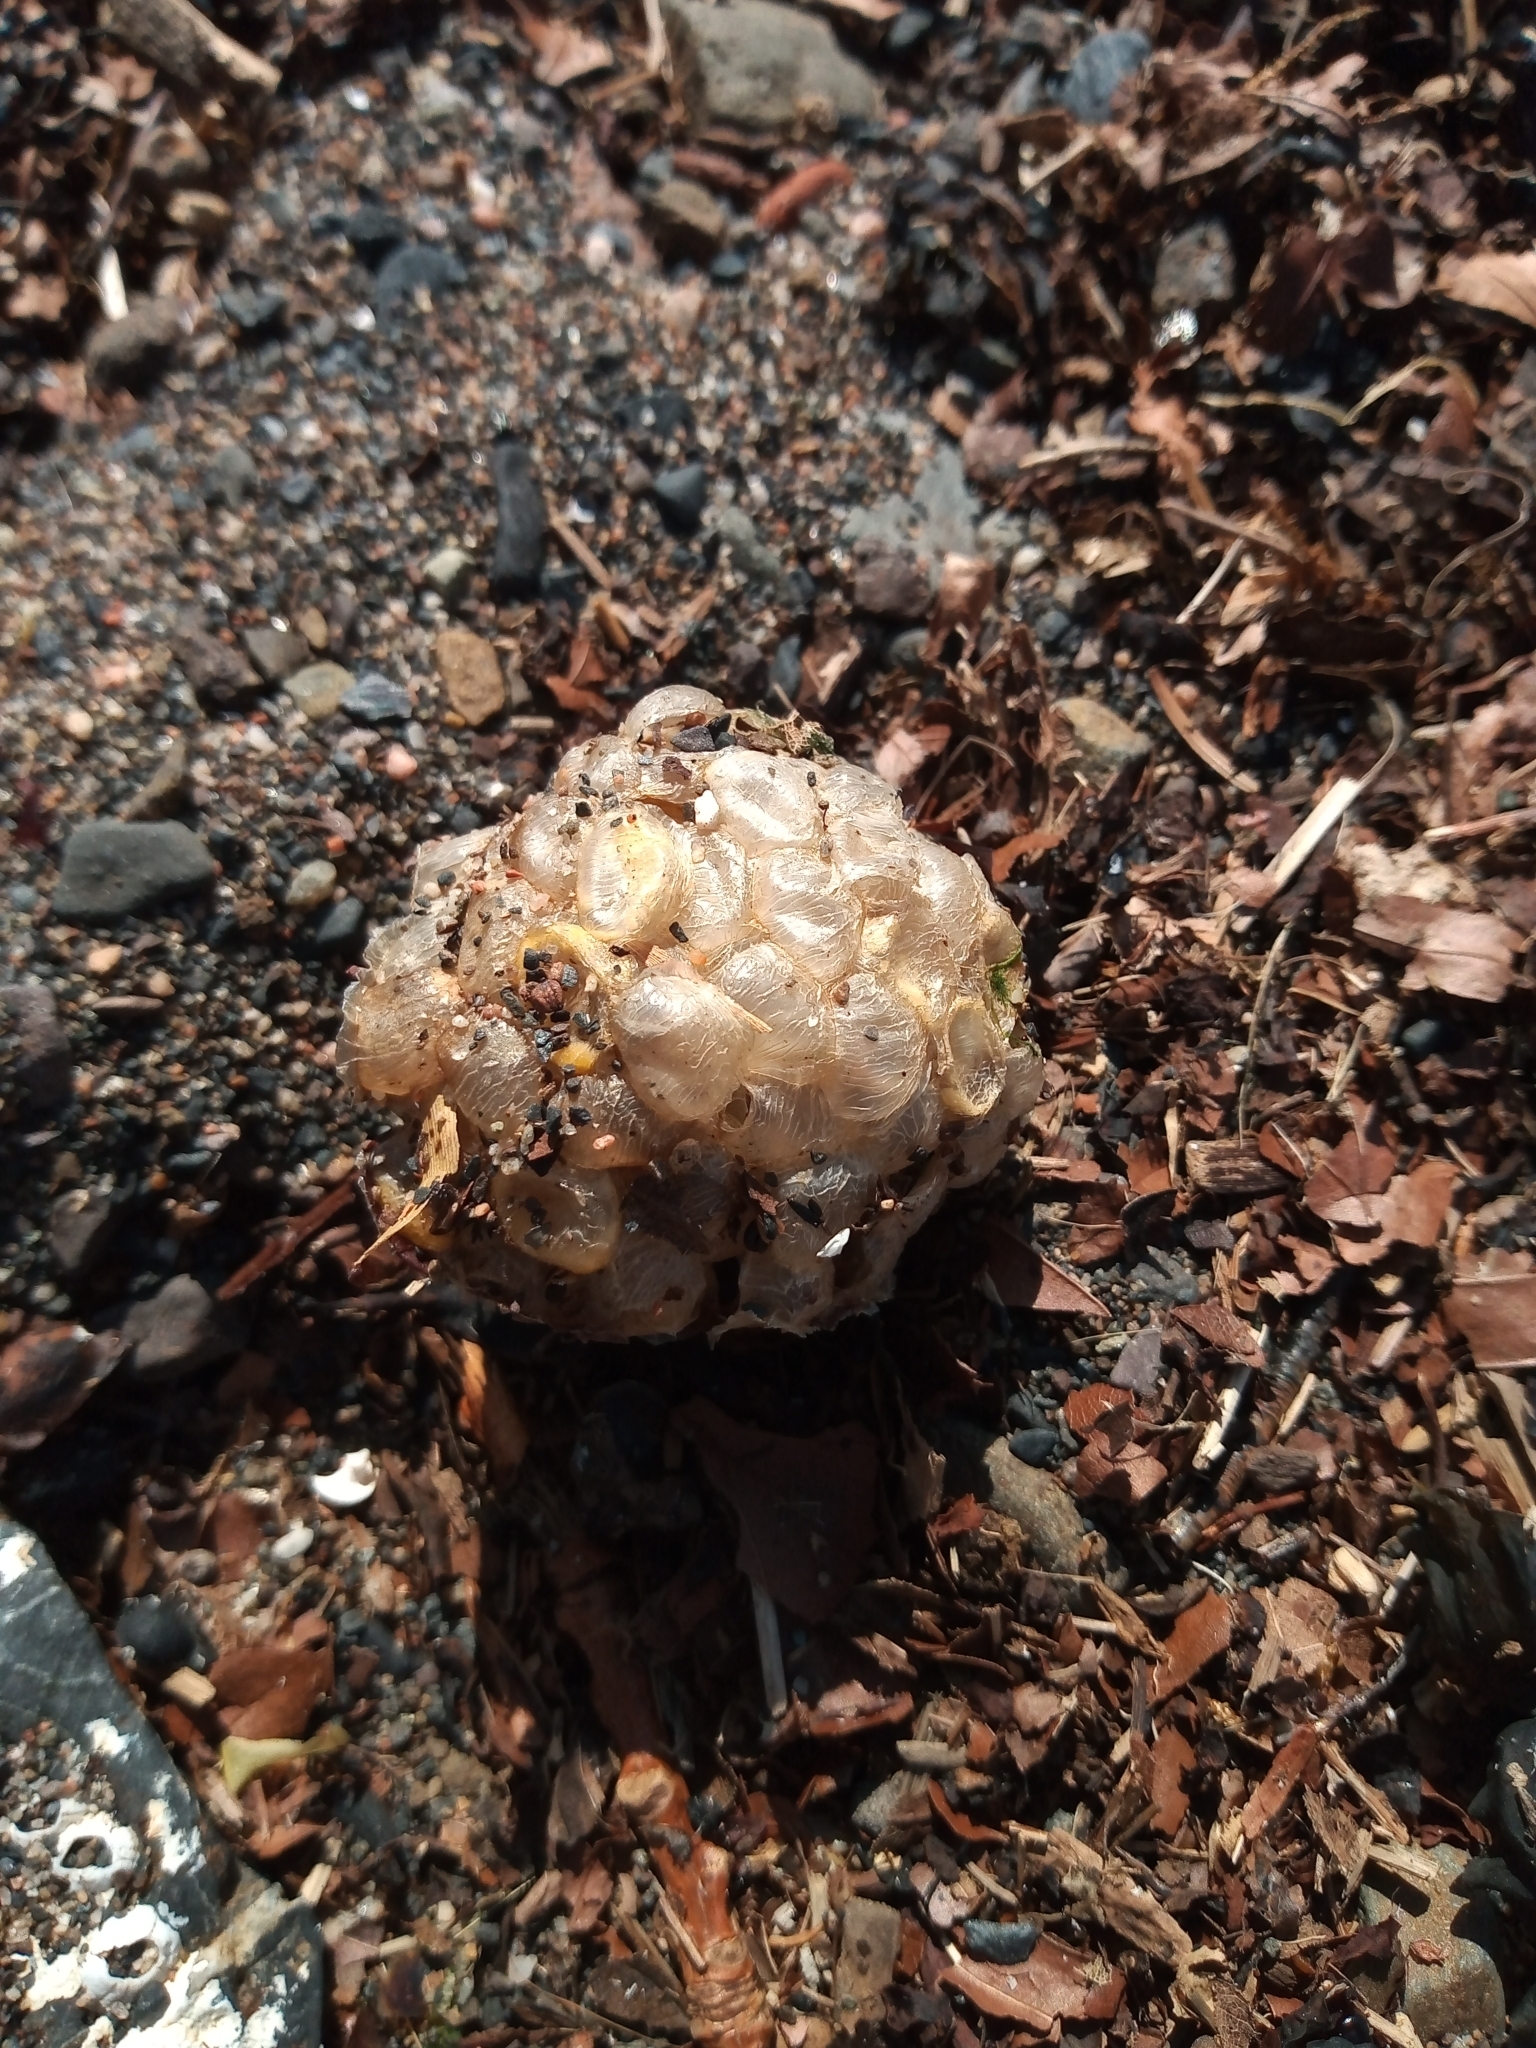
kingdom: Animalia
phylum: Mollusca
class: Gastropoda
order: Neogastropoda
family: Buccinidae
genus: Buccinum
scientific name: Buccinum undatum
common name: Common whelk
